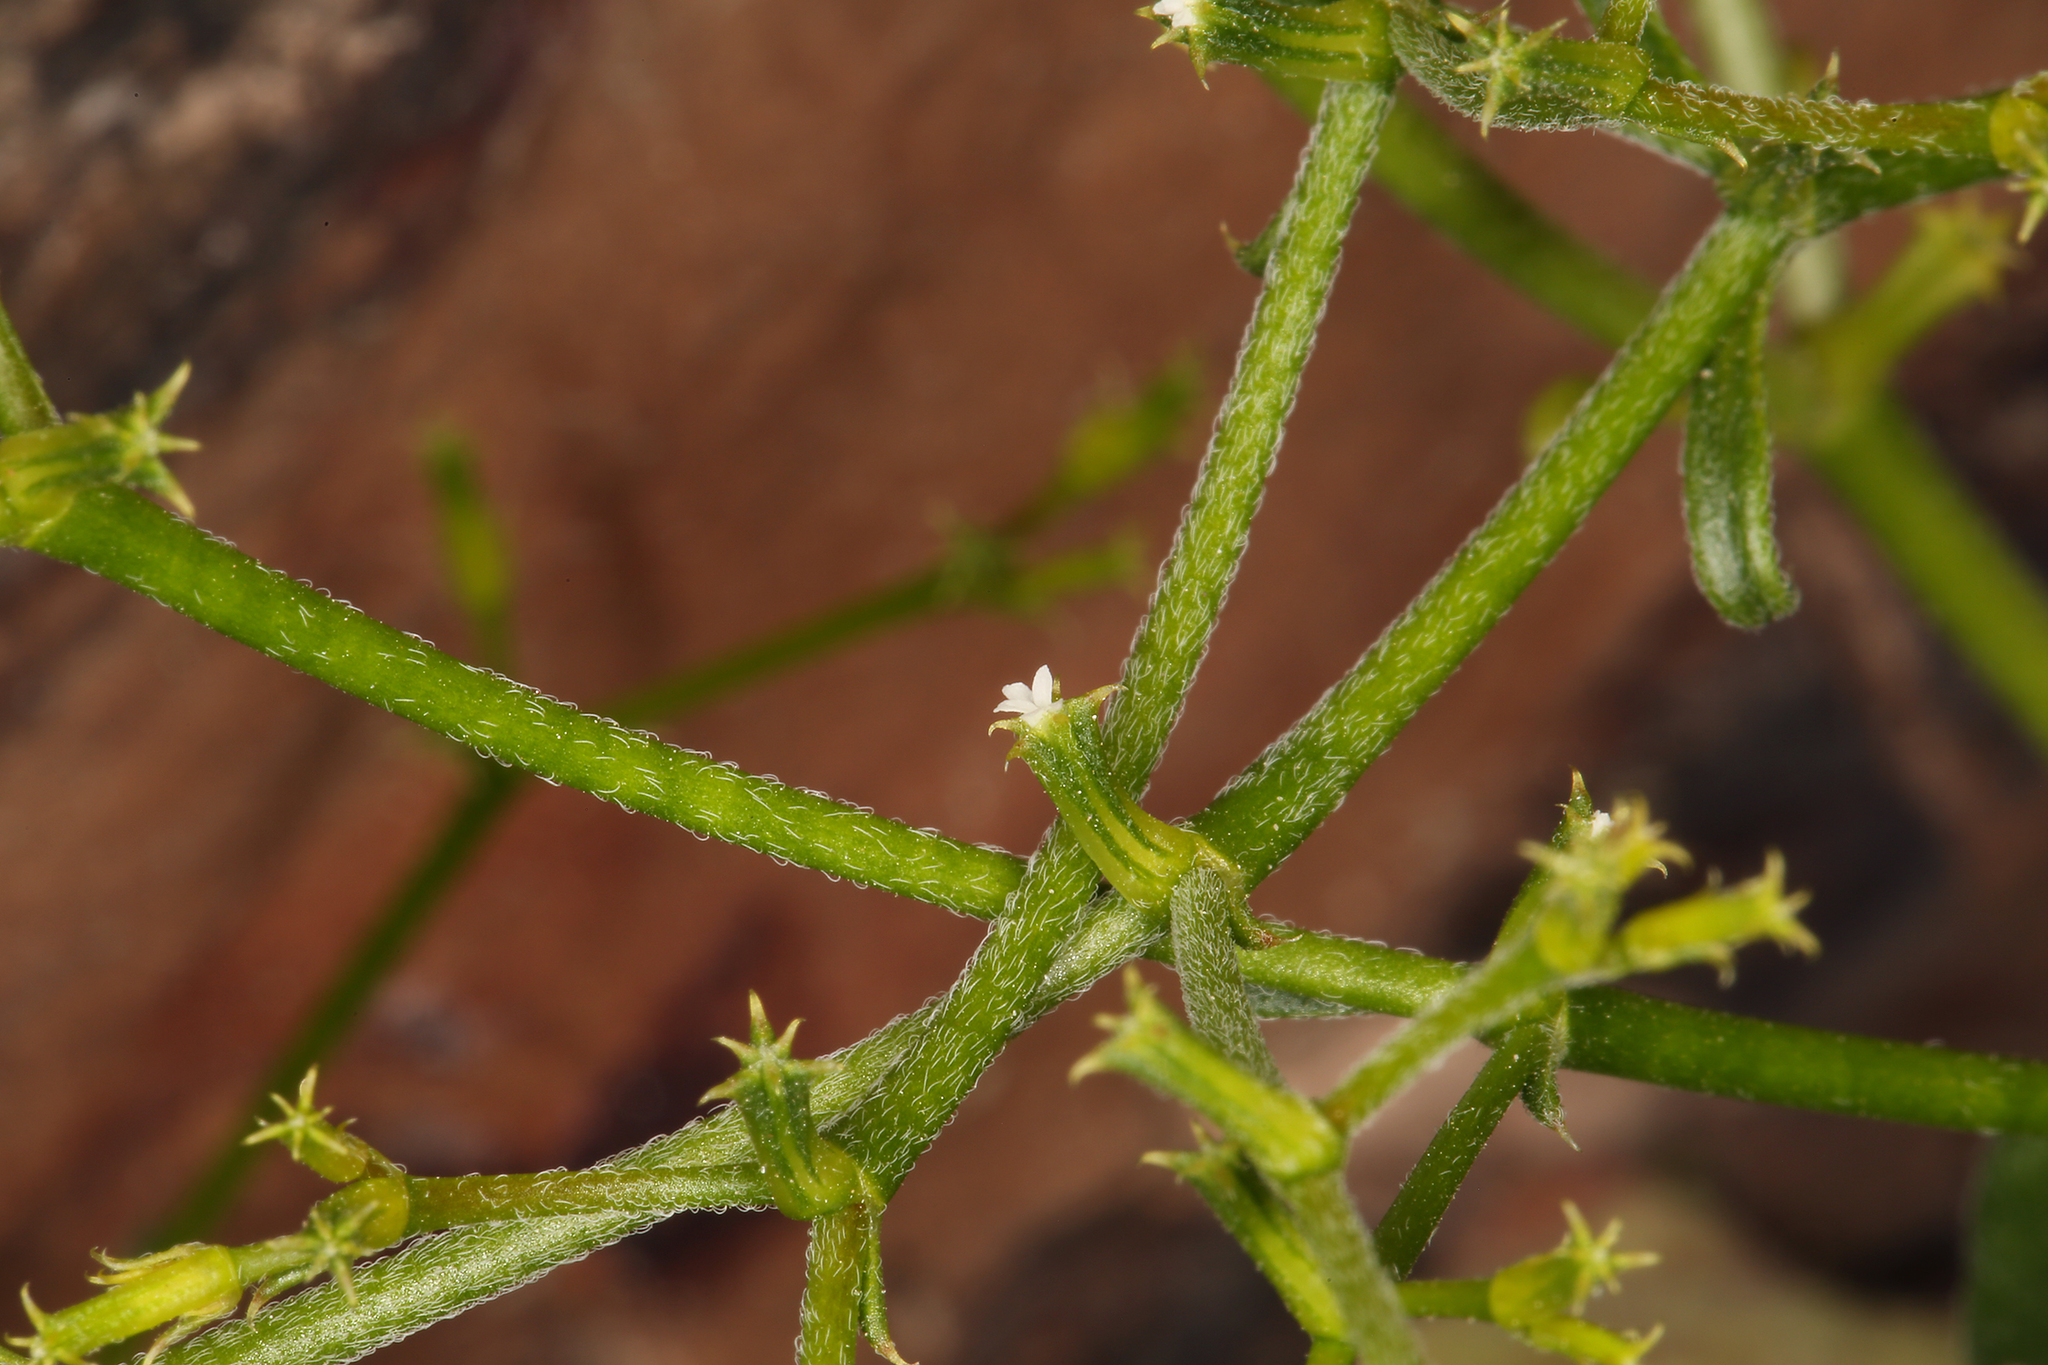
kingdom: Plantae
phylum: Tracheophyta
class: Magnoliopsida
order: Caryophyllales
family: Polygonaceae
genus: Chorizanthe
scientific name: Chorizanthe brevicornu
